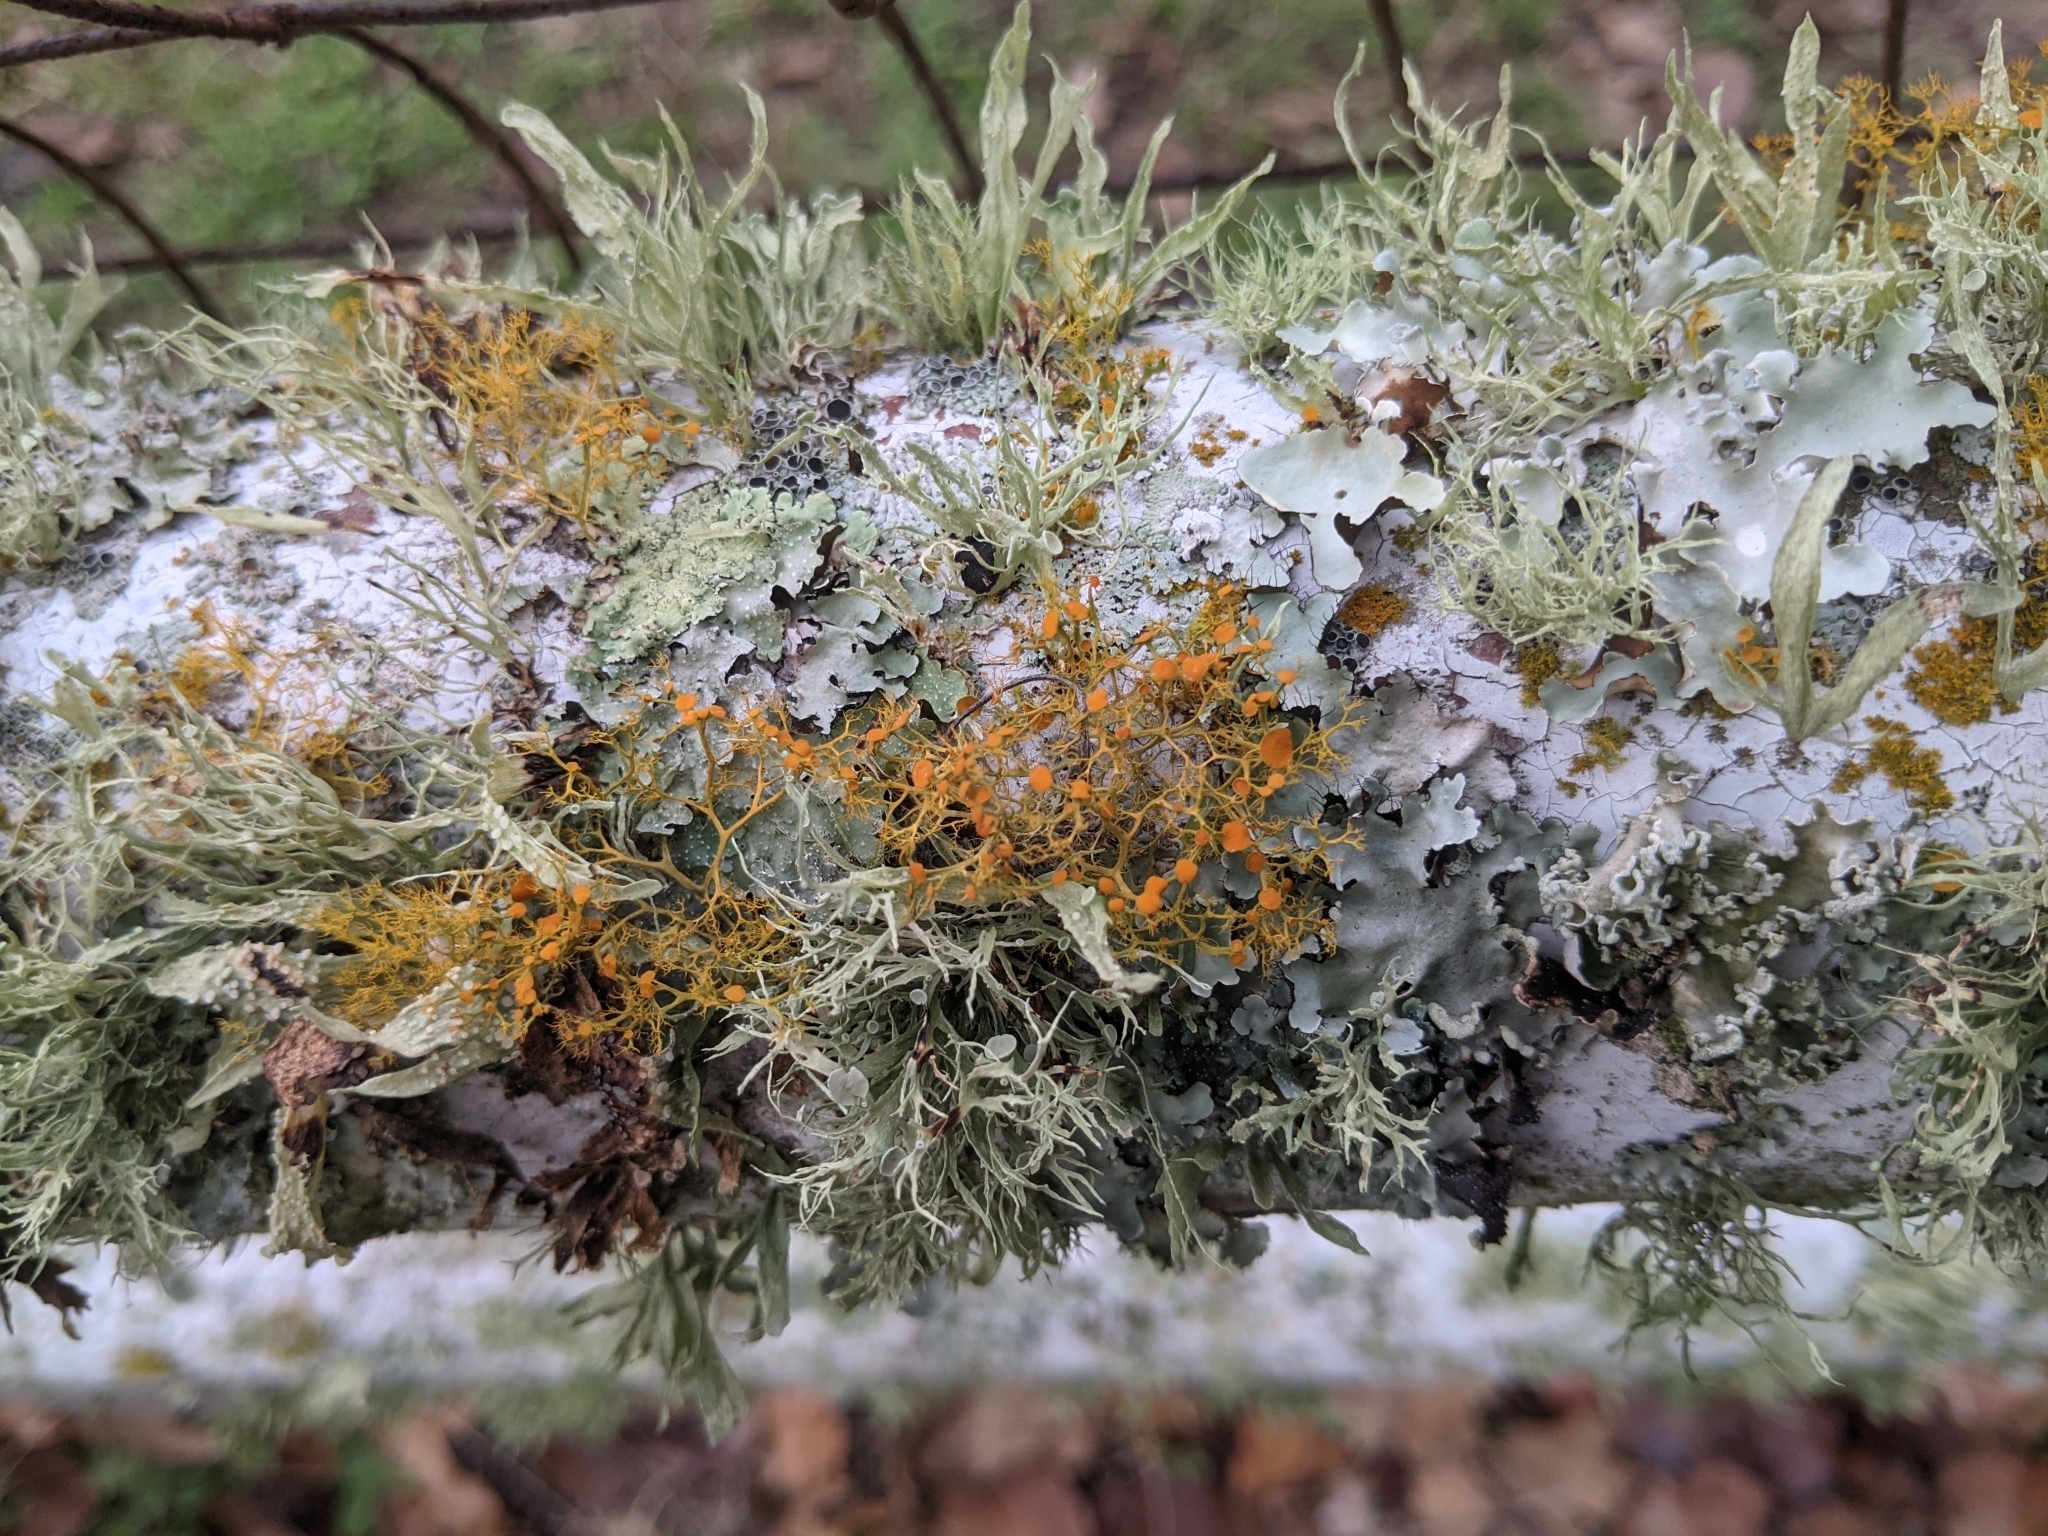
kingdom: Fungi
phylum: Ascomycota
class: Lecanoromycetes
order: Teloschistales
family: Teloschistaceae
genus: Teloschistes
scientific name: Teloschistes exilis
